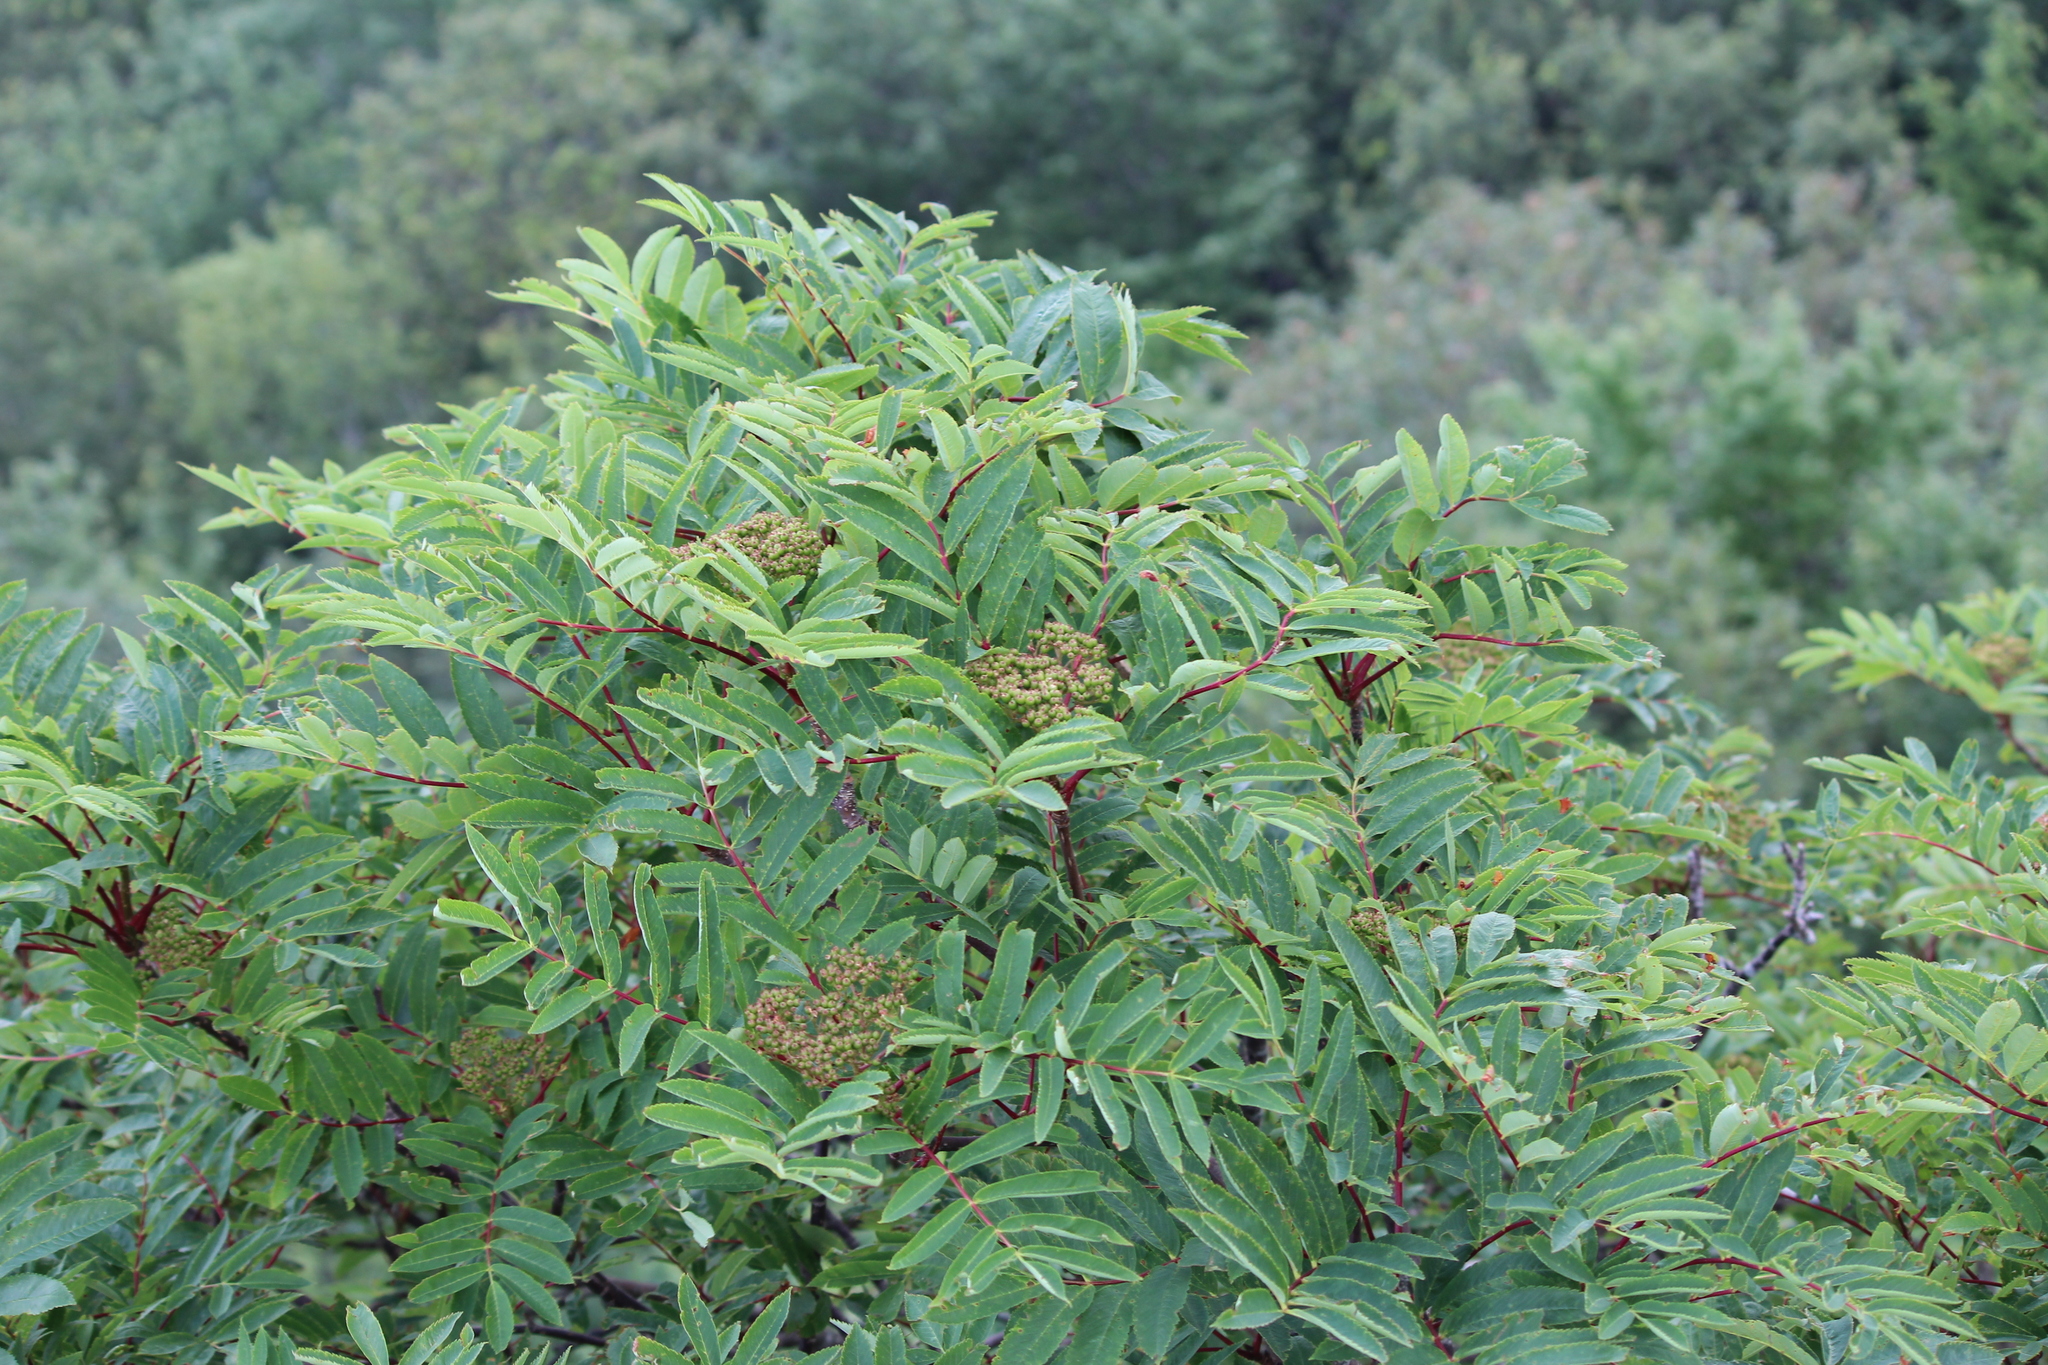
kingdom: Plantae
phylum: Tracheophyta
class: Magnoliopsida
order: Rosales
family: Rosaceae
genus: Sorbus
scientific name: Sorbus americana
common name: American mountain-ash
